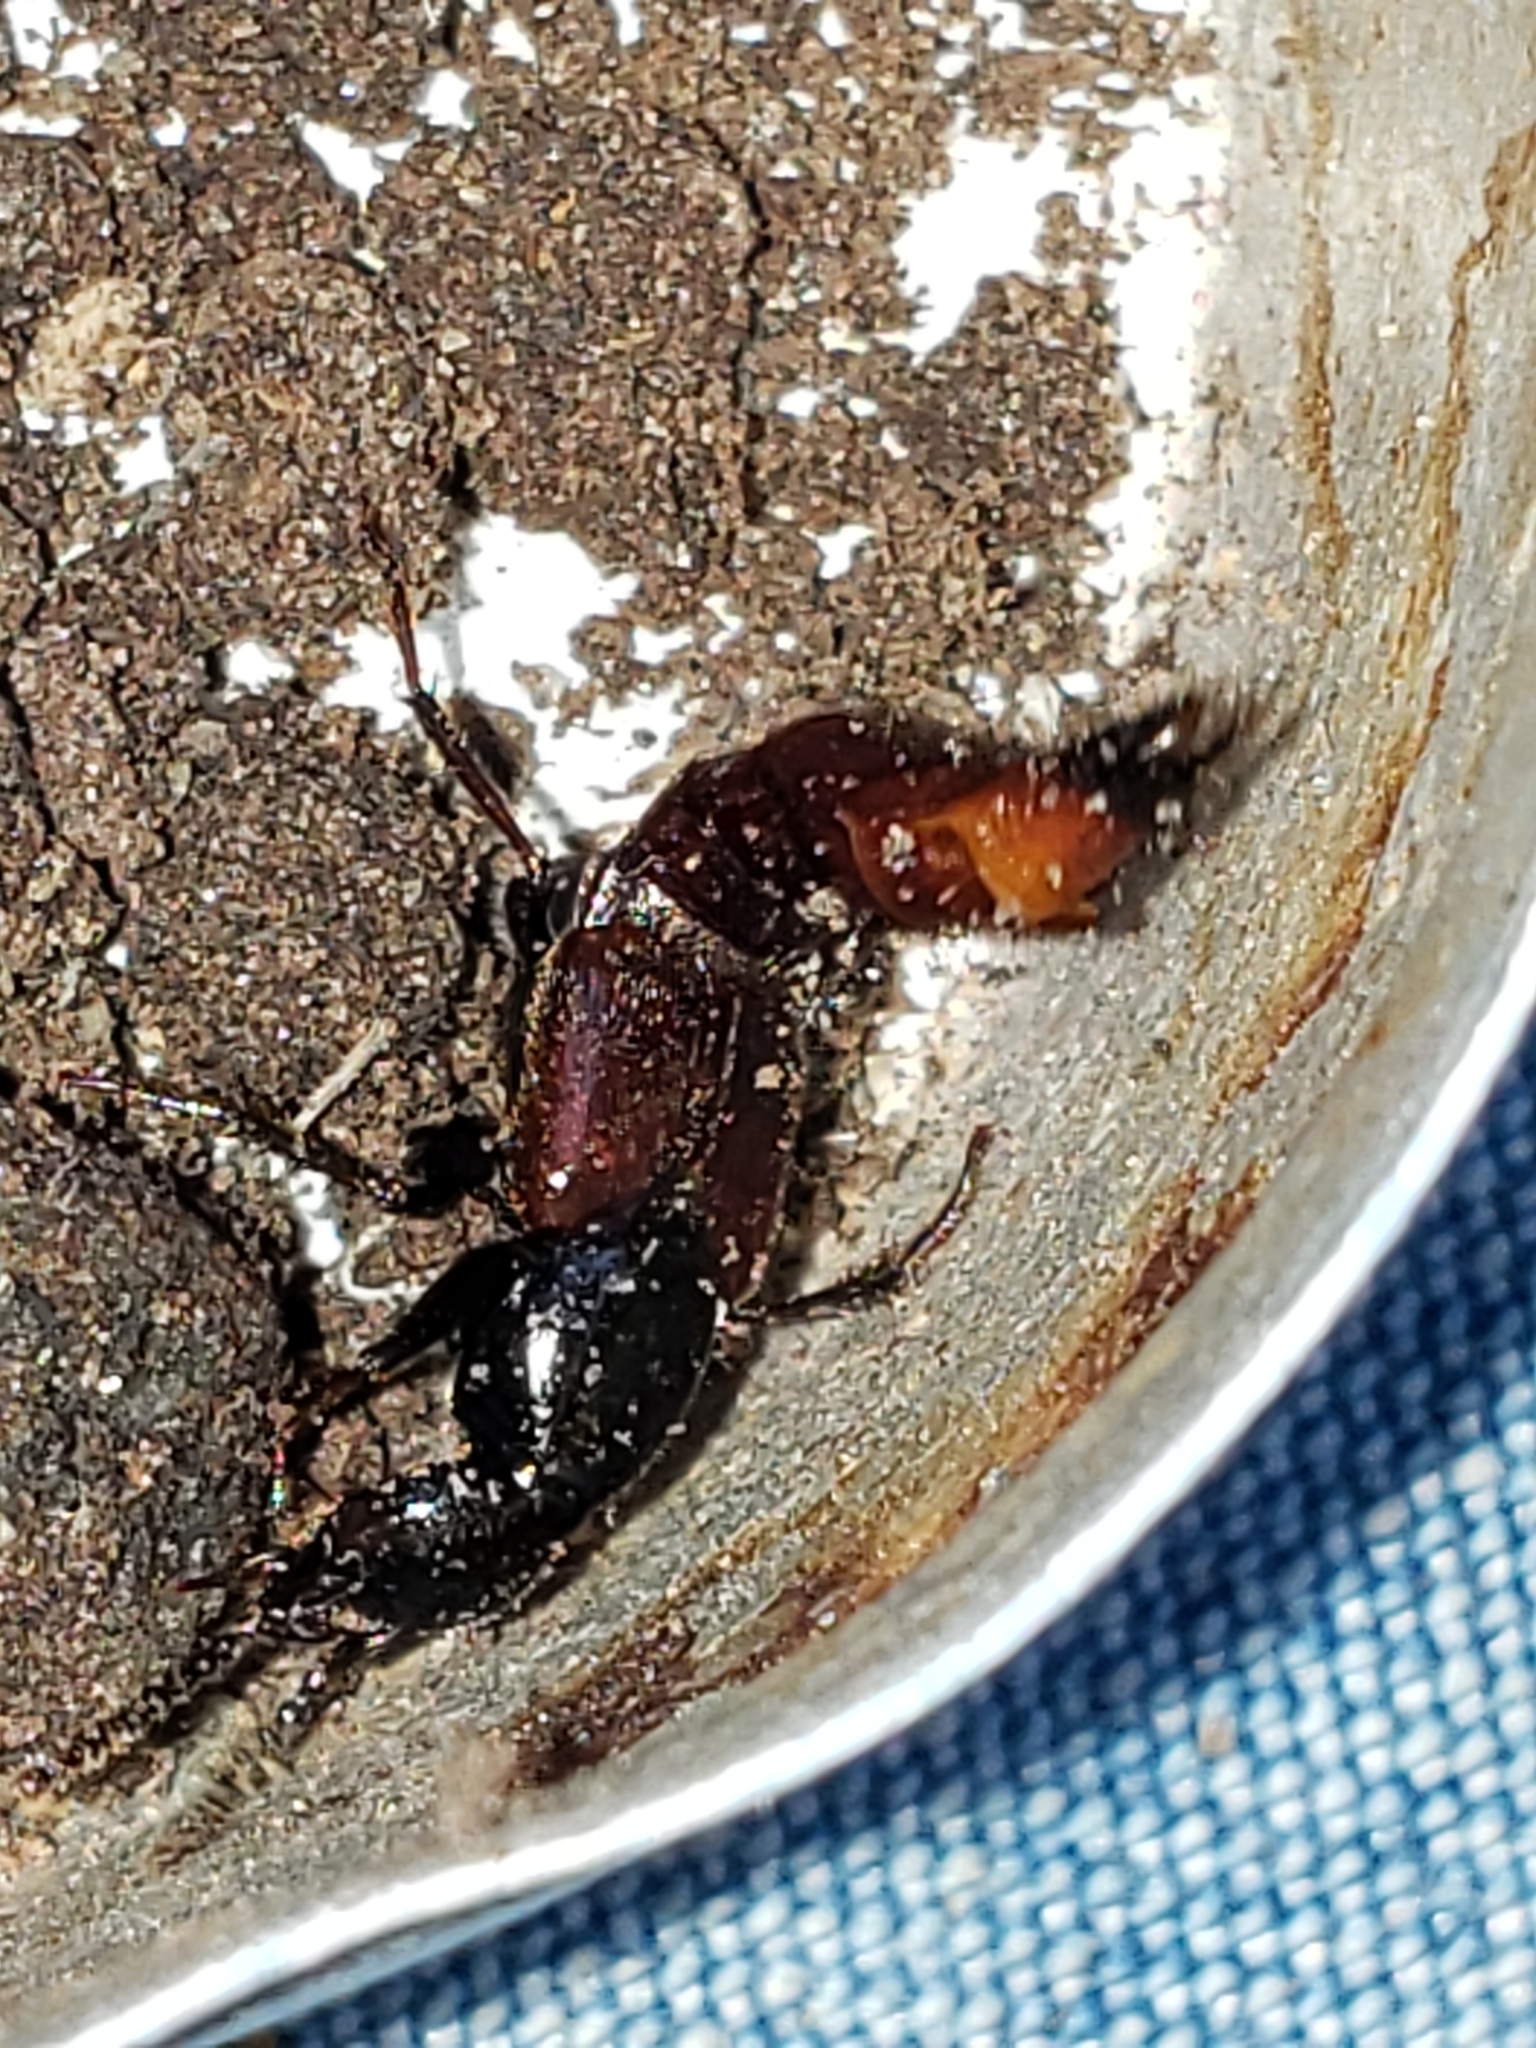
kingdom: Animalia
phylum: Arthropoda
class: Insecta
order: Coleoptera
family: Staphylinidae
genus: Hesperus
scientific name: Hesperus baltimorensis
